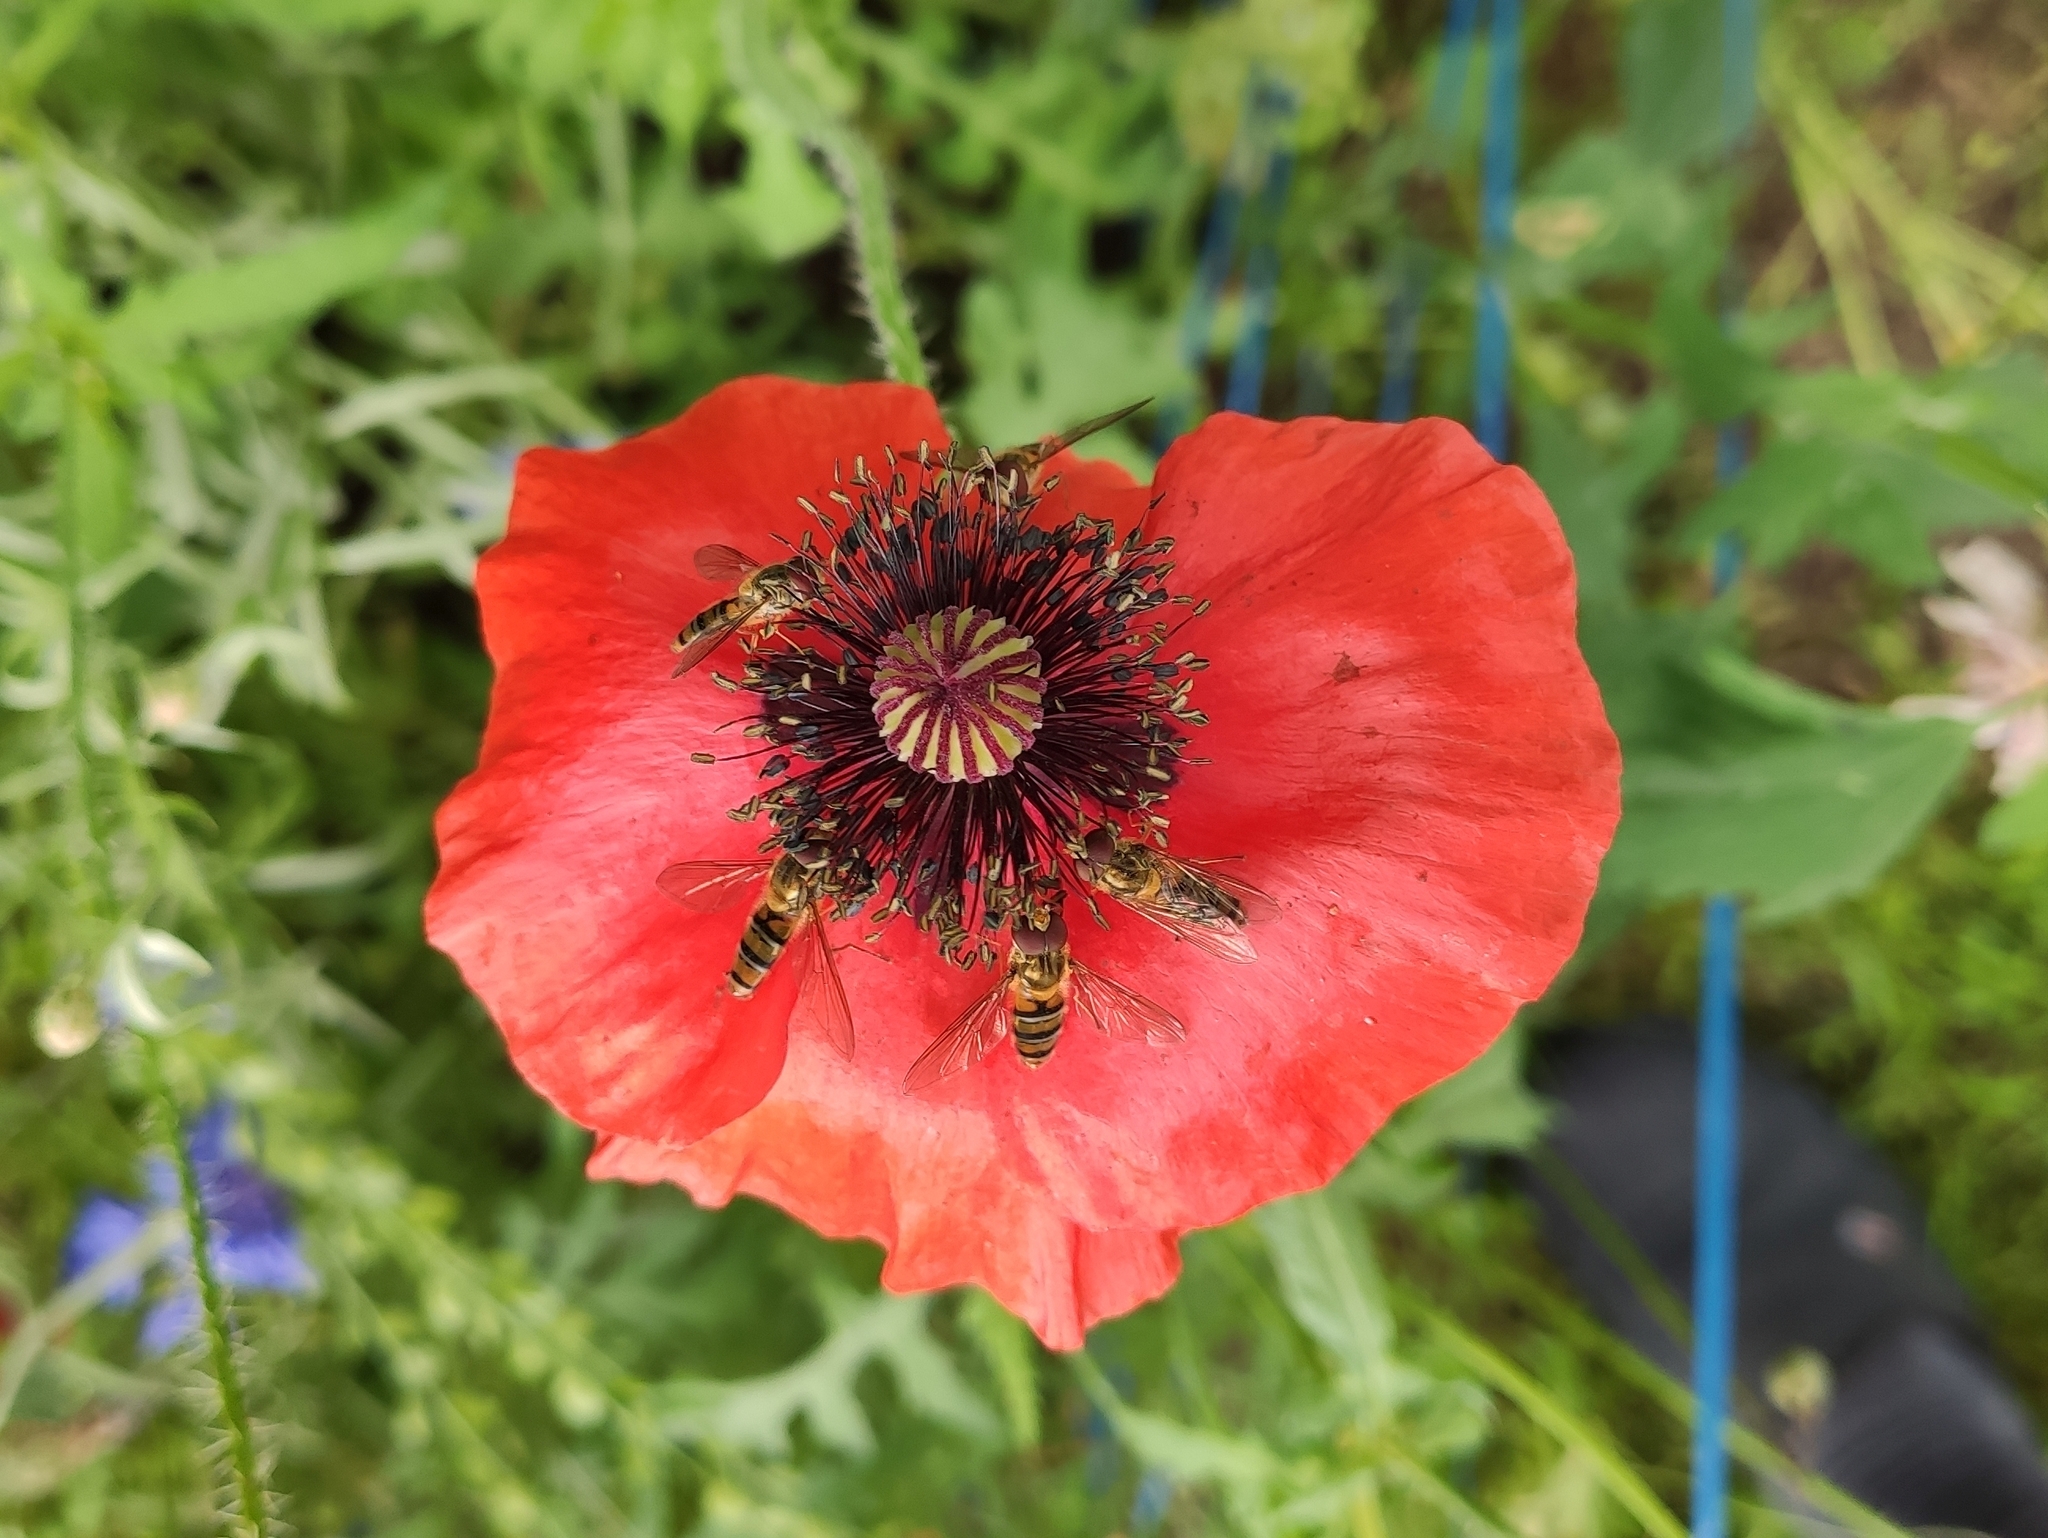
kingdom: Animalia
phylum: Arthropoda
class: Insecta
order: Diptera
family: Syrphidae
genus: Episyrphus
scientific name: Episyrphus balteatus
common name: Marmalade hoverfly
